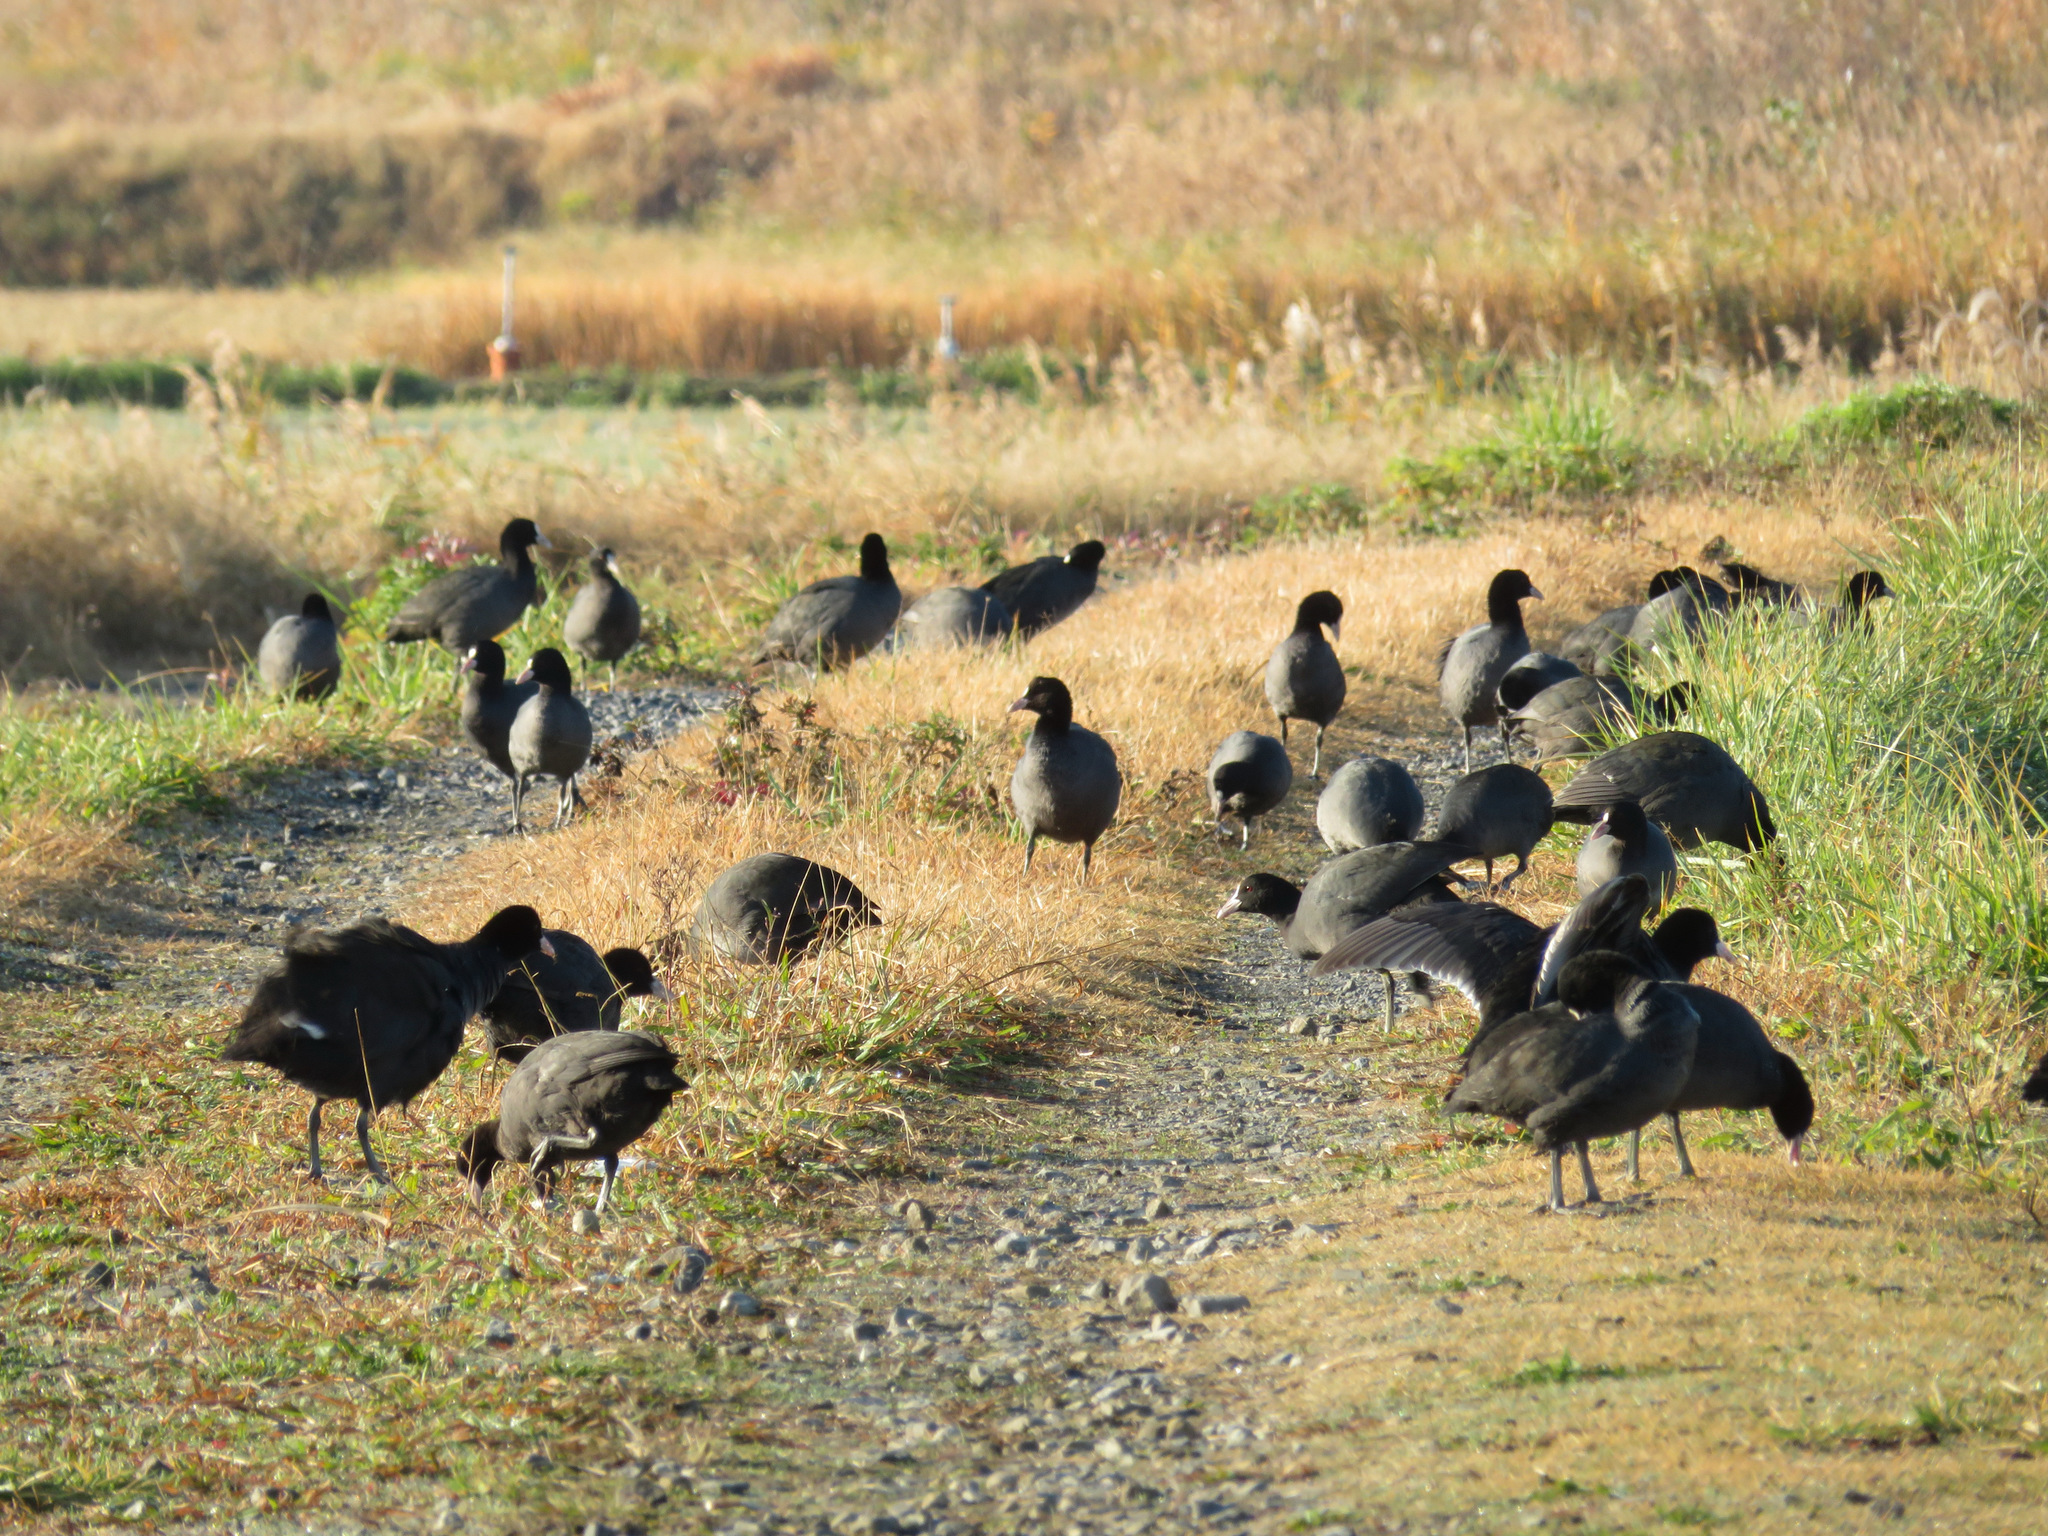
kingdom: Animalia
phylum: Chordata
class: Aves
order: Gruiformes
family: Rallidae
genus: Fulica
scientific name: Fulica atra
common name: Eurasian coot
